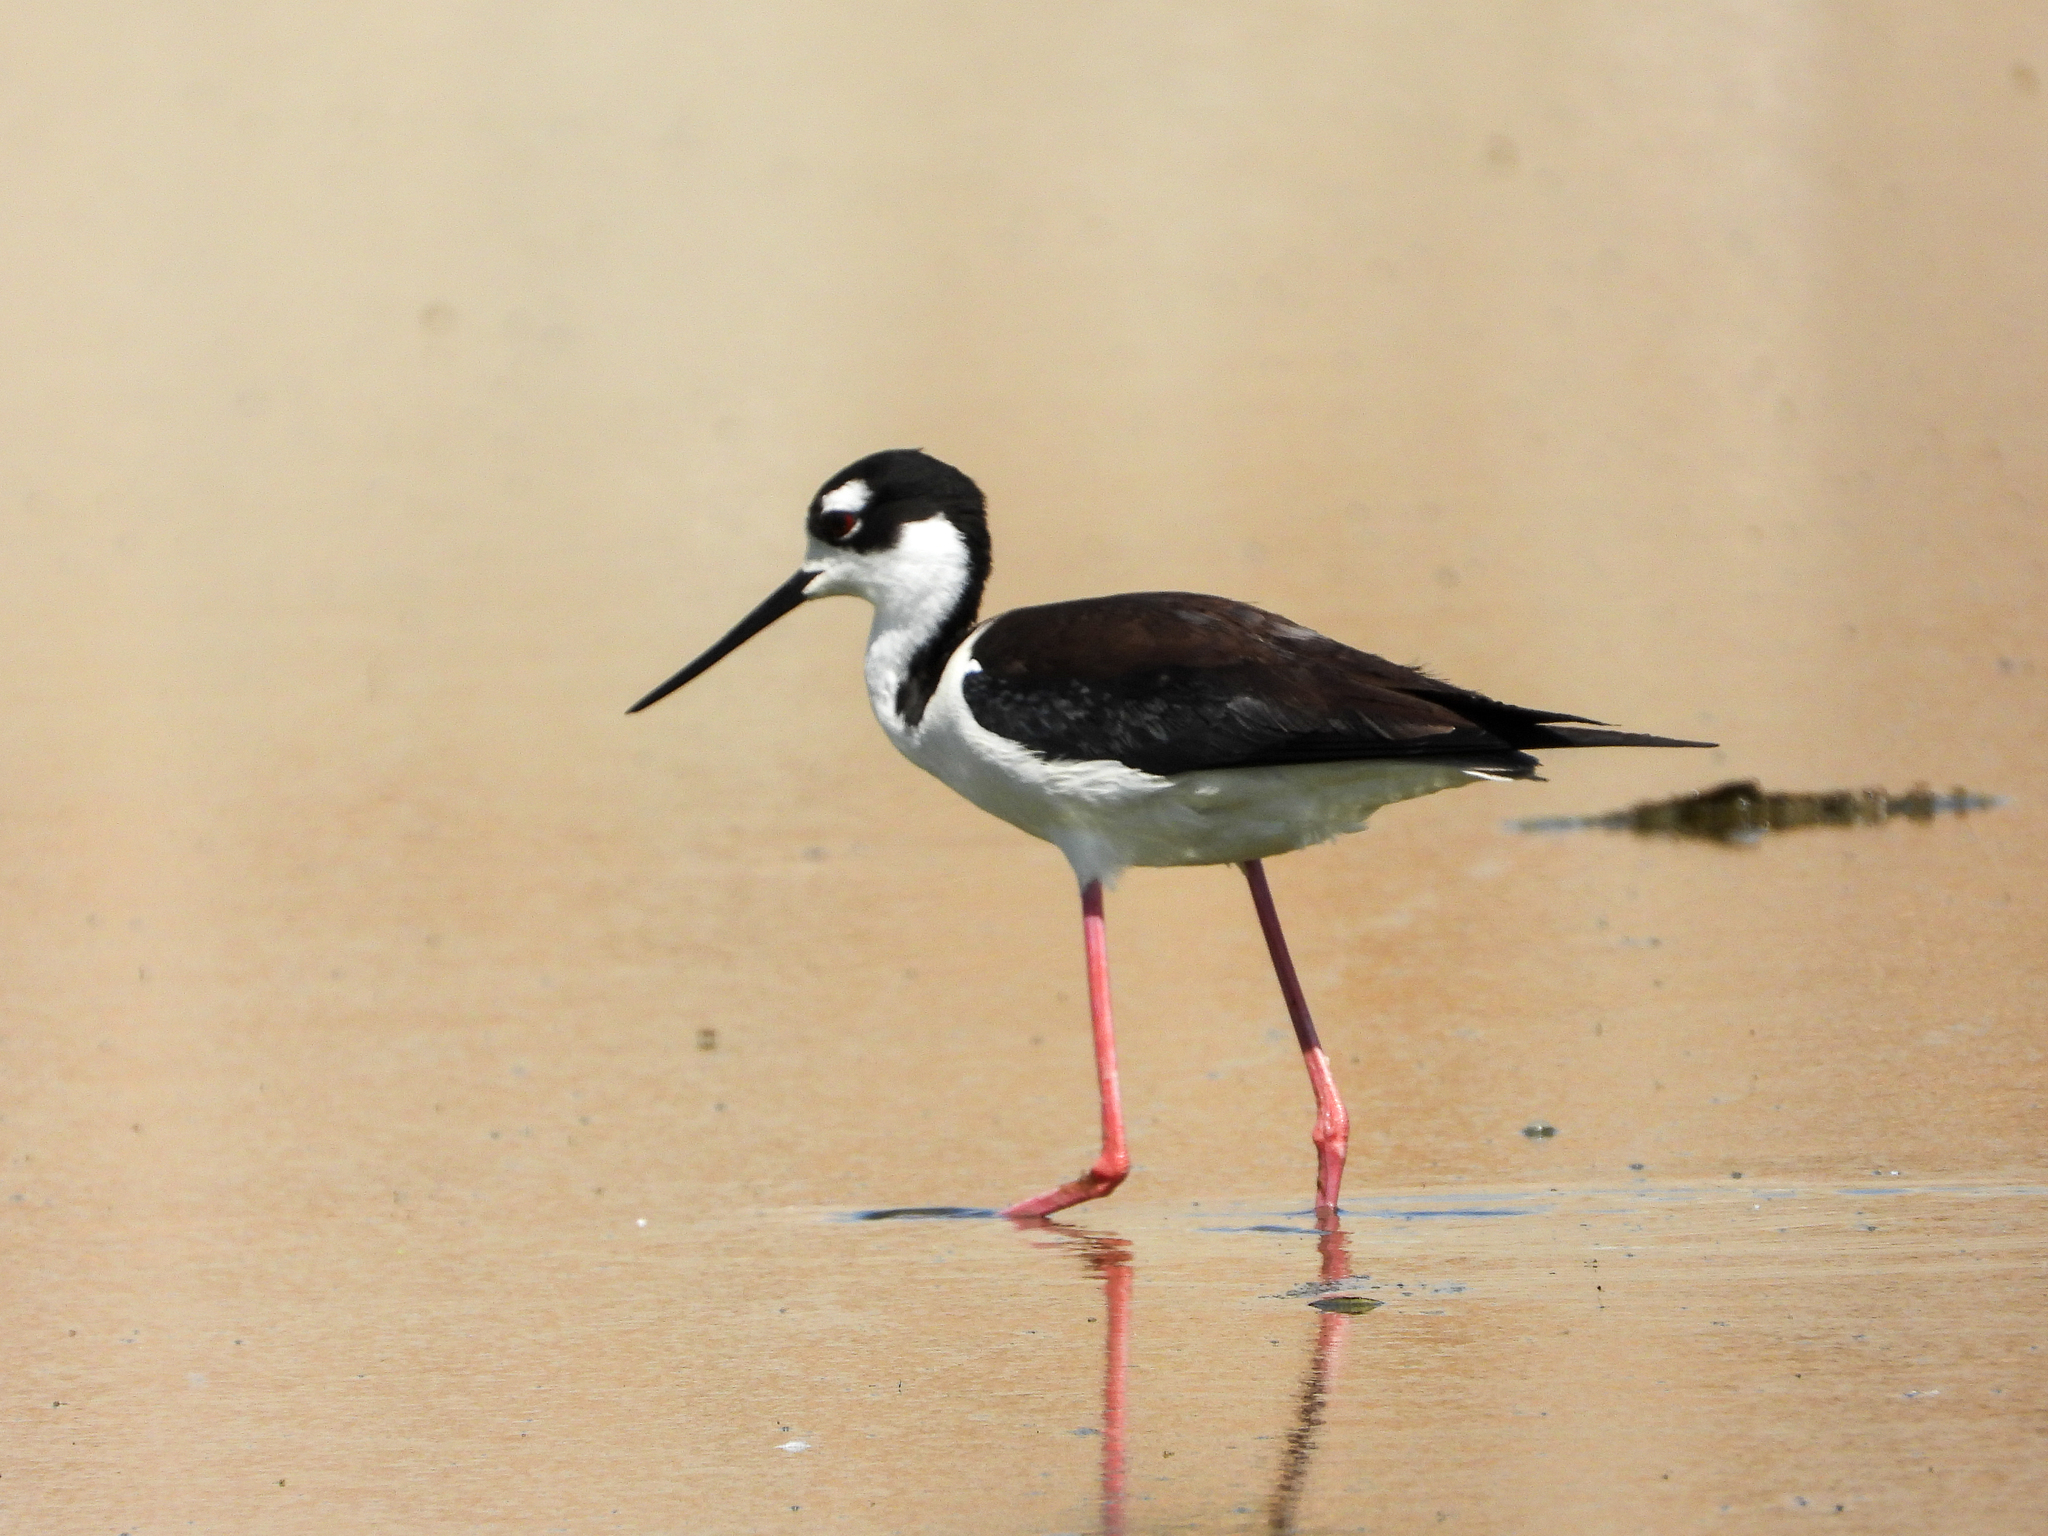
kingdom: Animalia
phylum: Chordata
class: Aves
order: Charadriiformes
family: Recurvirostridae
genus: Himantopus
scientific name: Himantopus mexicanus
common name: Black-necked stilt
